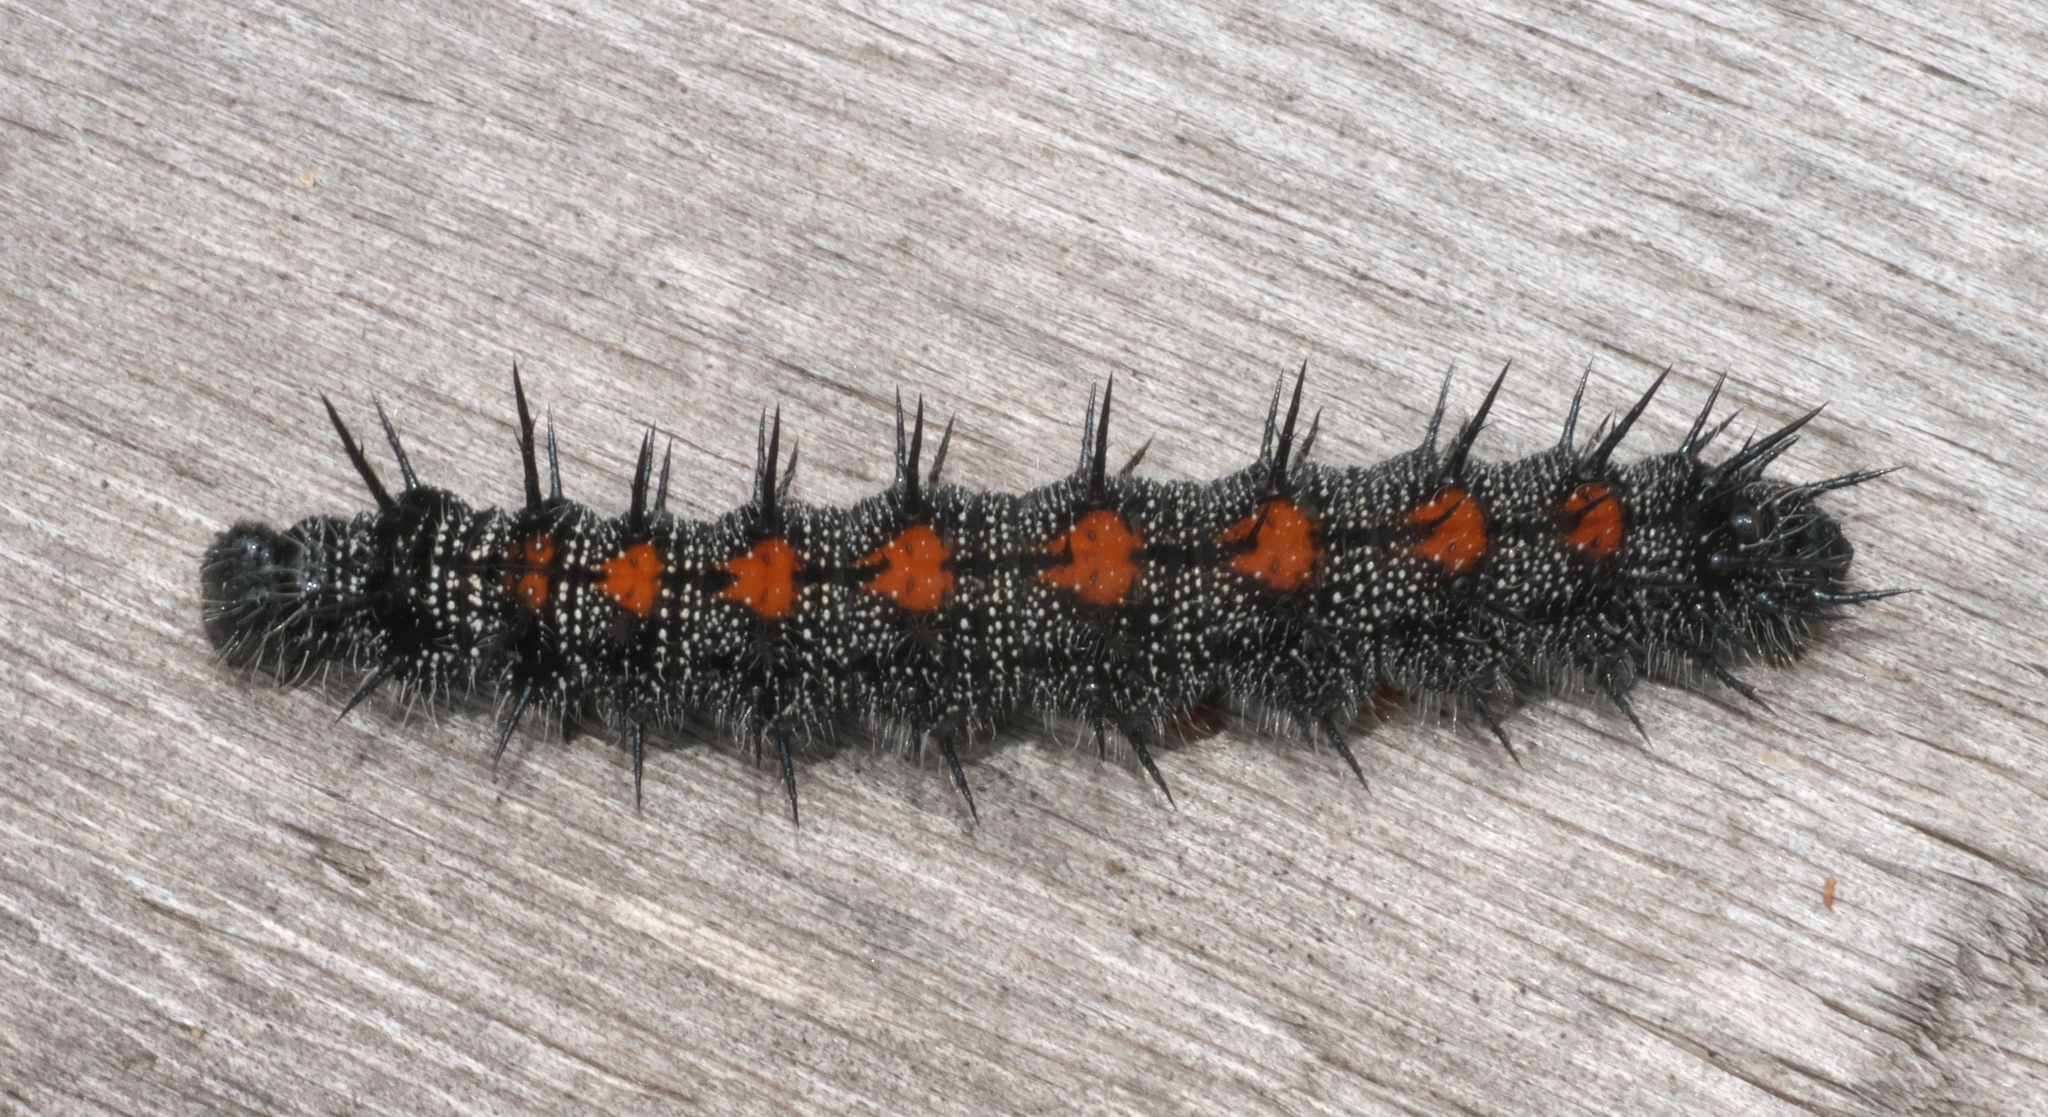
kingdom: Animalia
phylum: Arthropoda
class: Insecta
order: Lepidoptera
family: Nymphalidae
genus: Nymphalis
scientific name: Nymphalis antiopa
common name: Camberwell beauty
